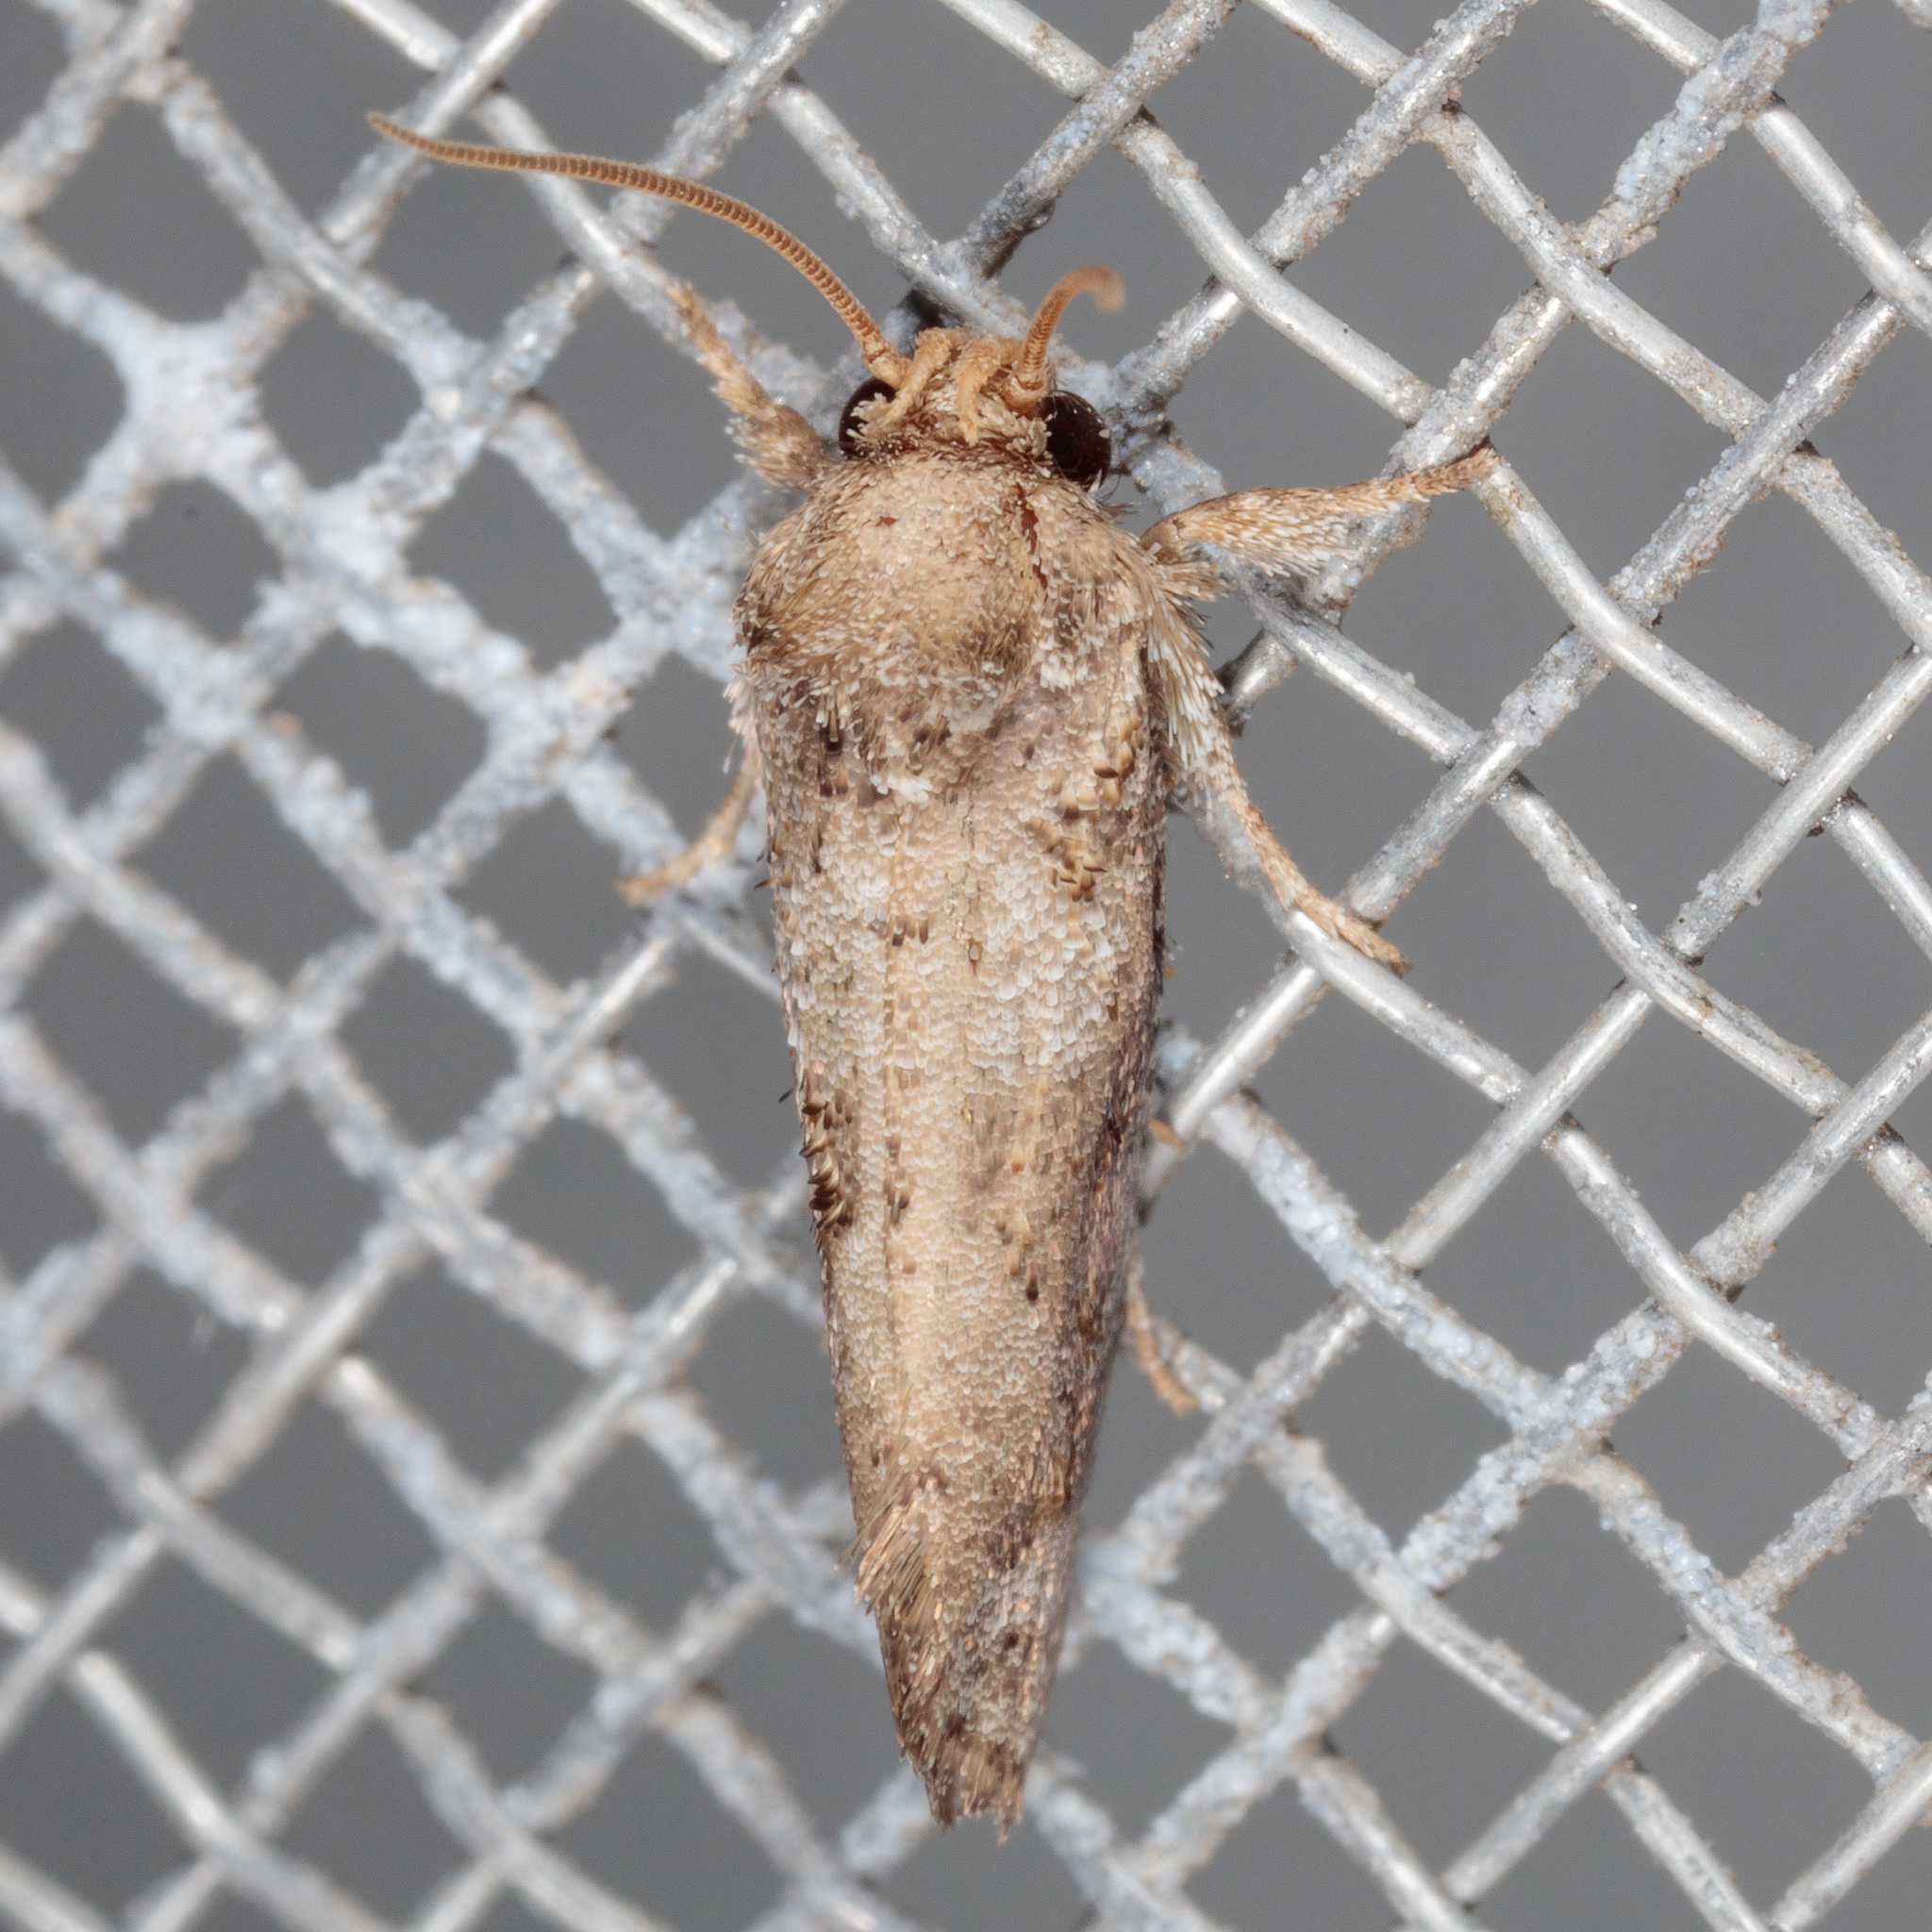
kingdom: Animalia
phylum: Arthropoda
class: Insecta
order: Lepidoptera
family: Tineidae
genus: Acrolophus
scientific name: Acrolophus piger
